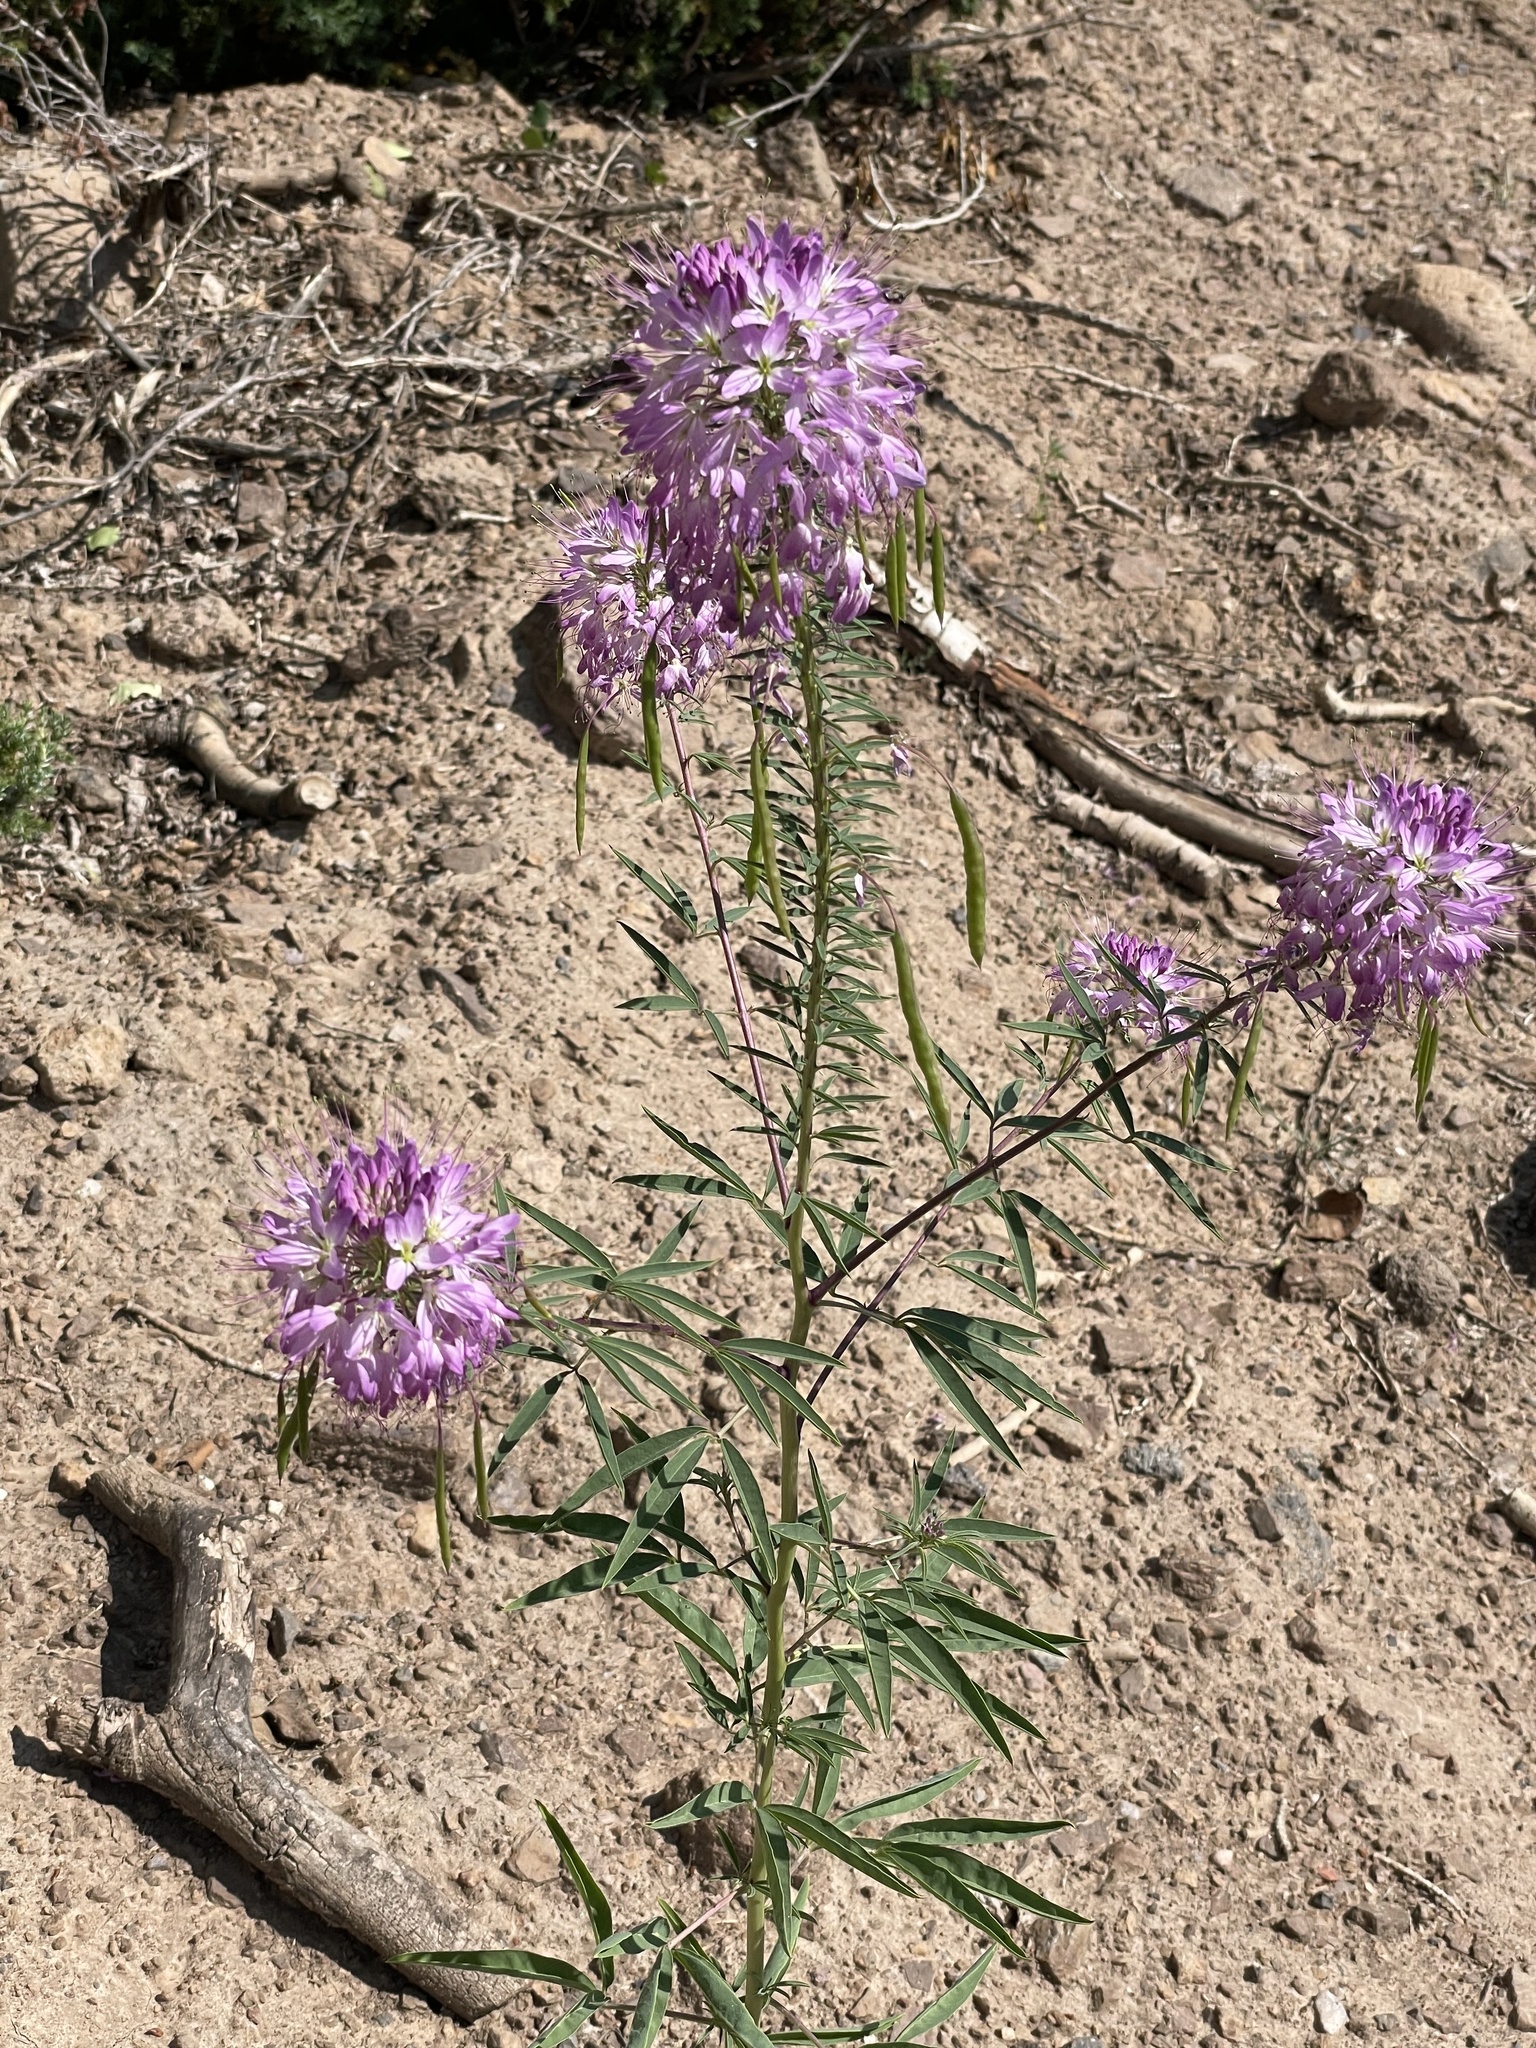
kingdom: Plantae
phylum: Tracheophyta
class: Magnoliopsida
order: Brassicales
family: Cleomaceae
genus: Cleomella
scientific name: Cleomella serrulata
